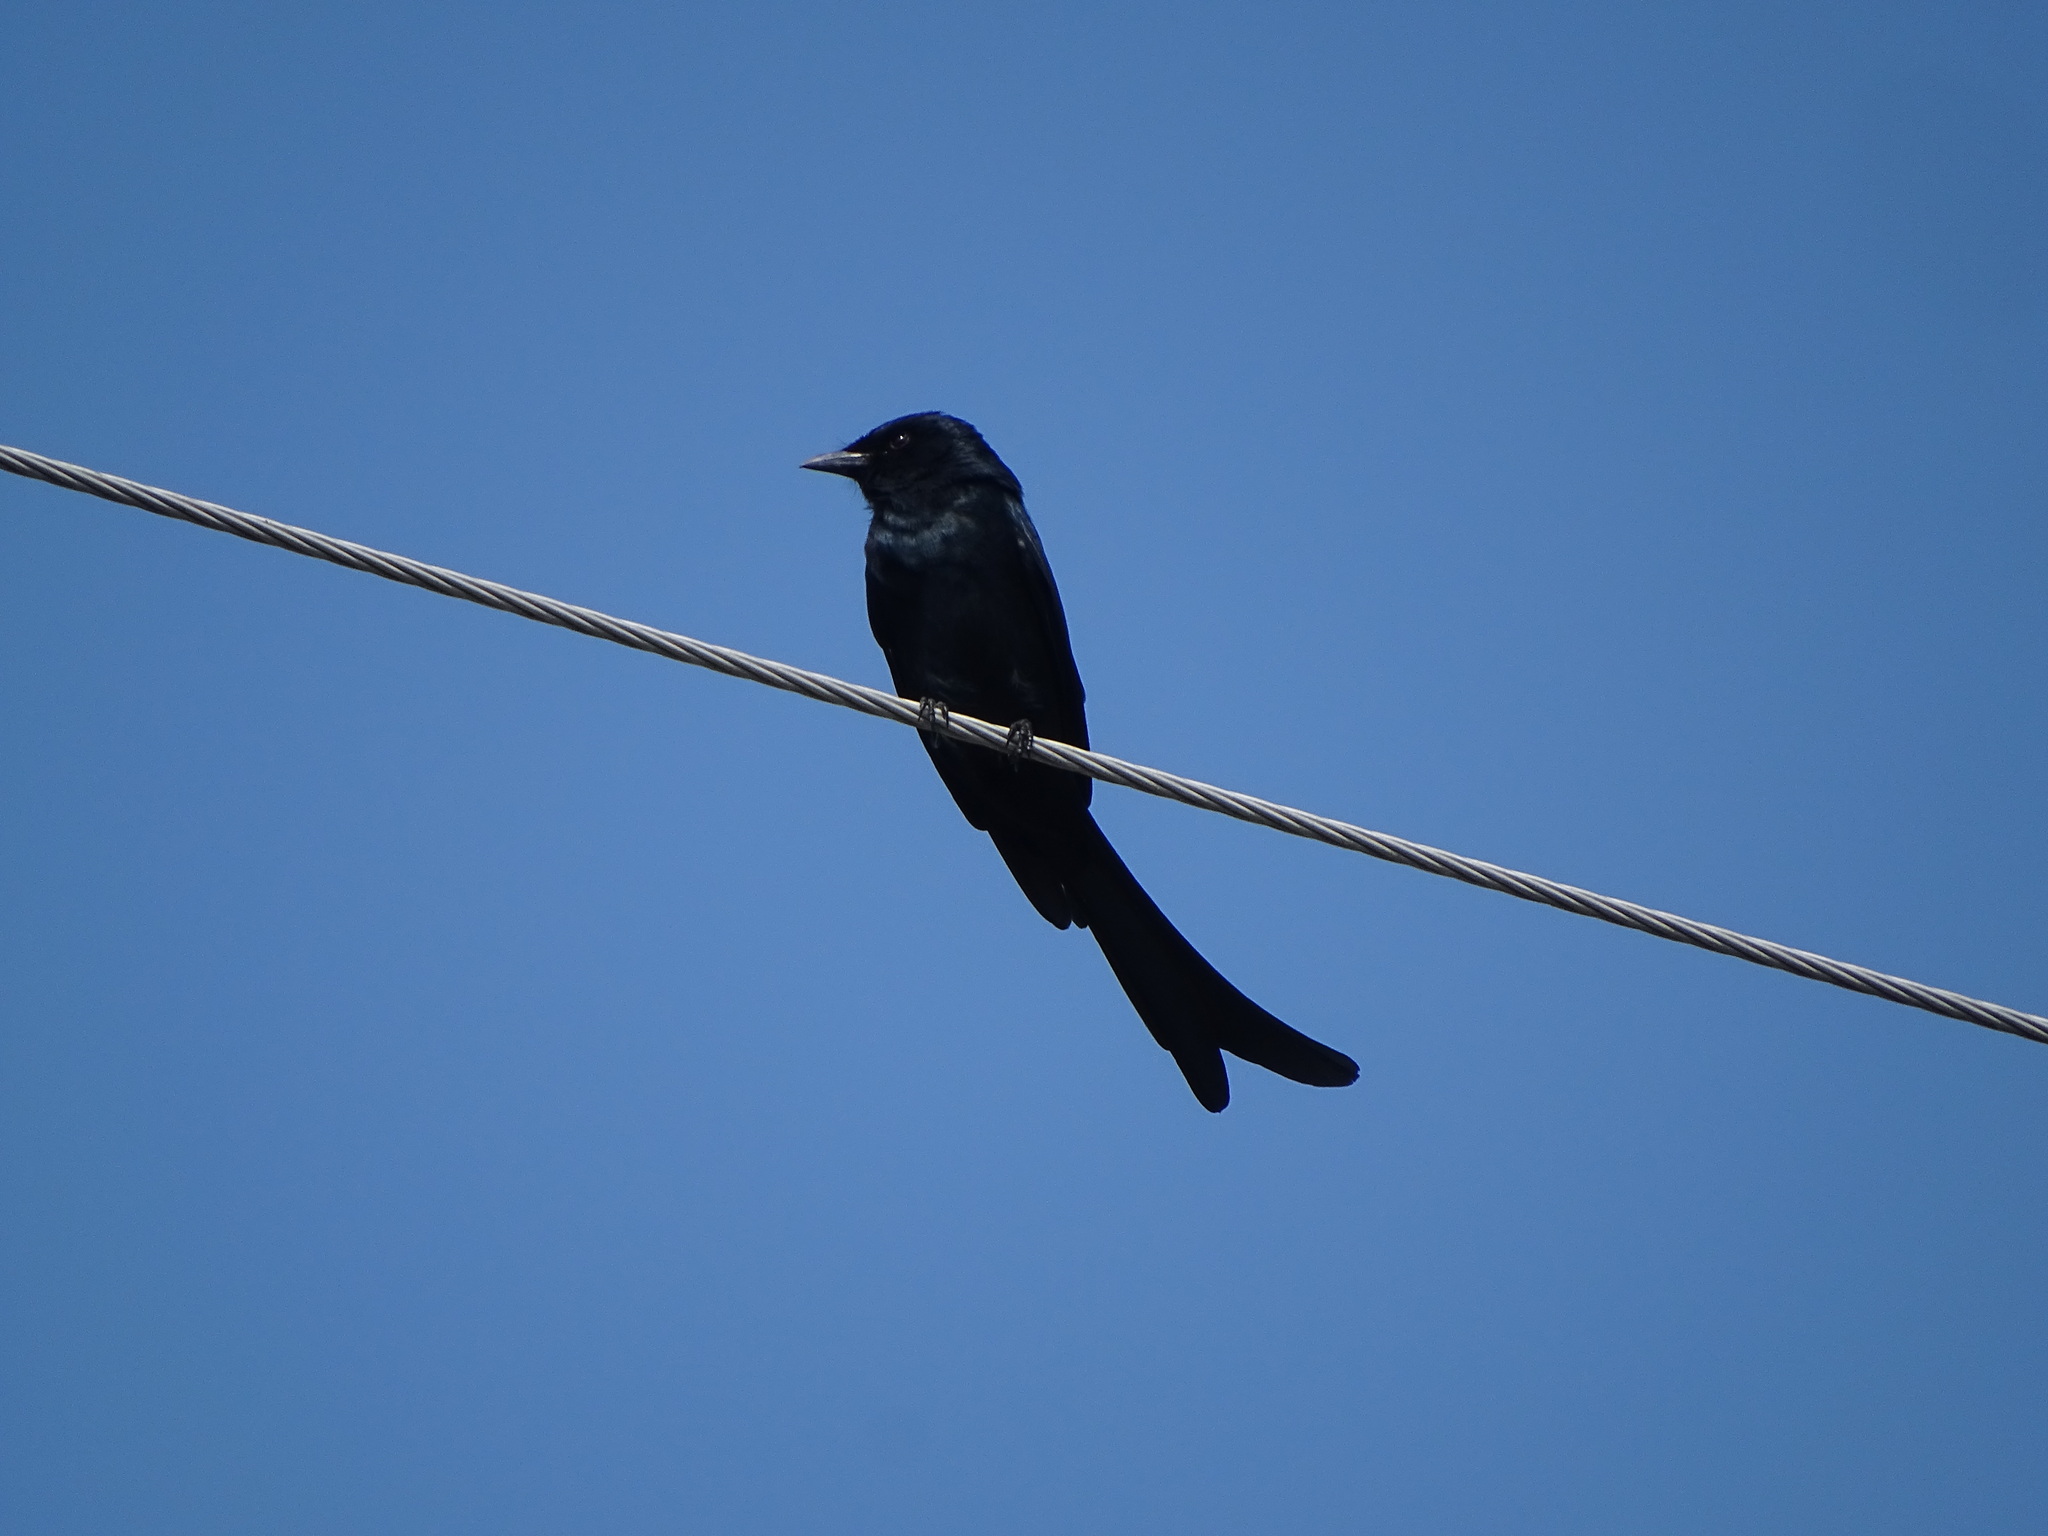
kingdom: Animalia
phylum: Chordata
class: Aves
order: Passeriformes
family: Dicruridae
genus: Dicrurus
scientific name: Dicrurus macrocercus
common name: Black drongo
